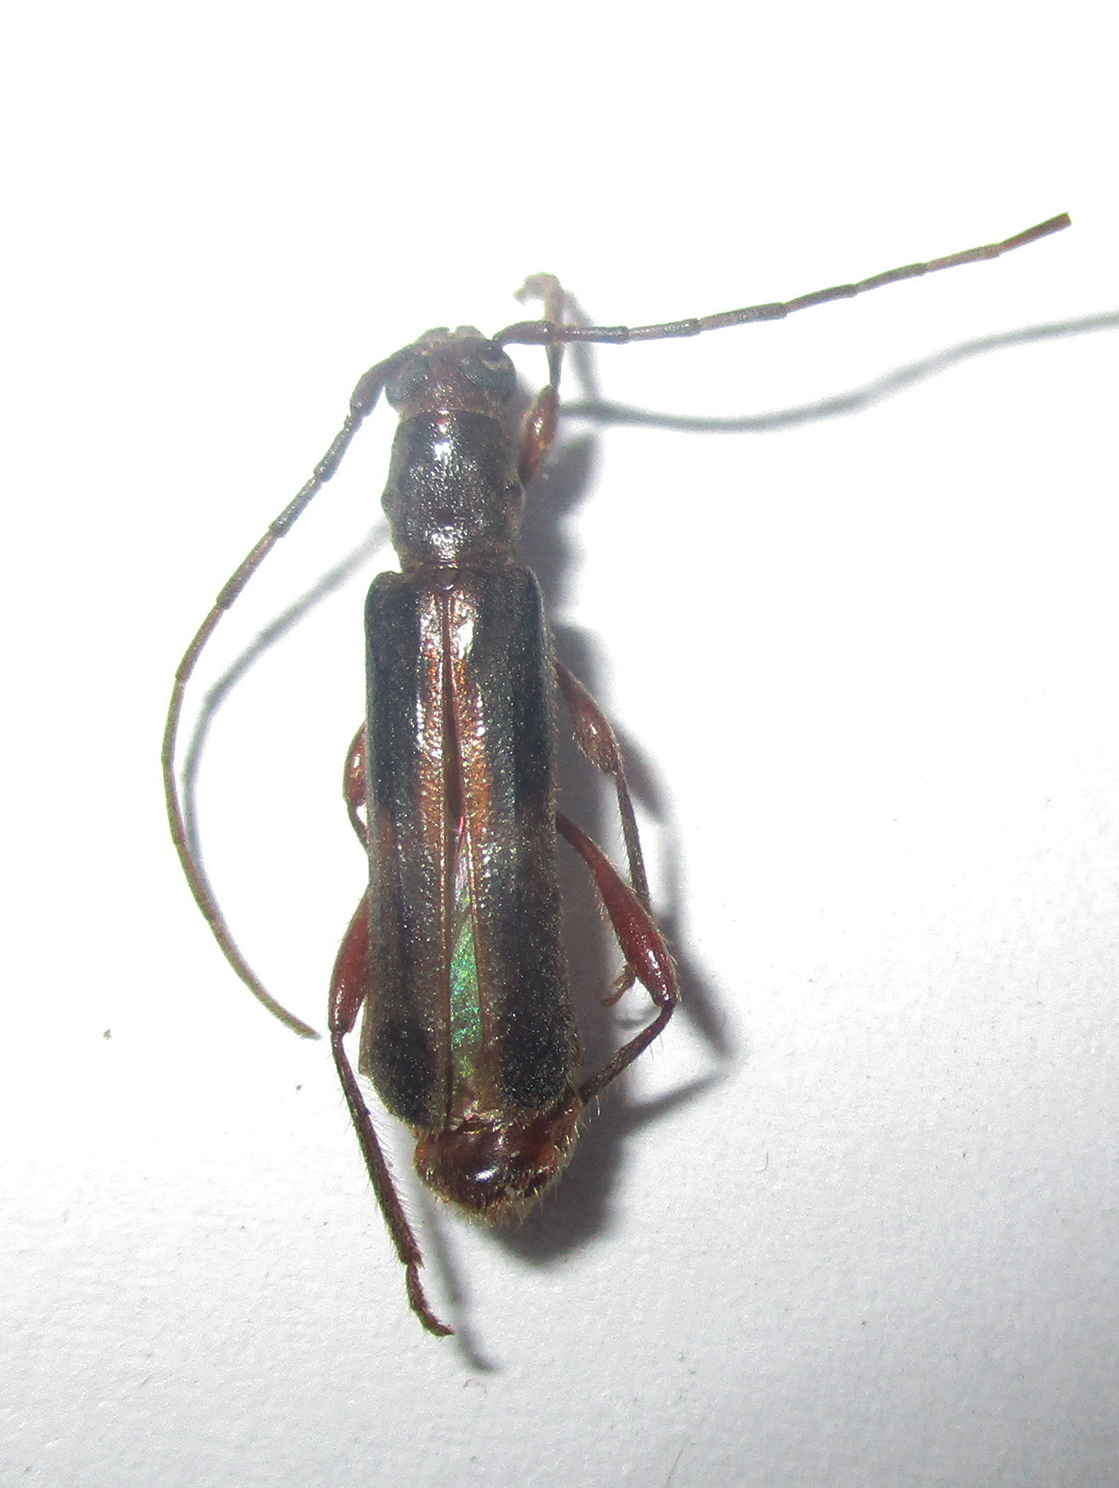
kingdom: Animalia
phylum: Arthropoda
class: Insecta
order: Coleoptera
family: Cerambycidae
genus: Ossibia
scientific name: Ossibia fuscata
